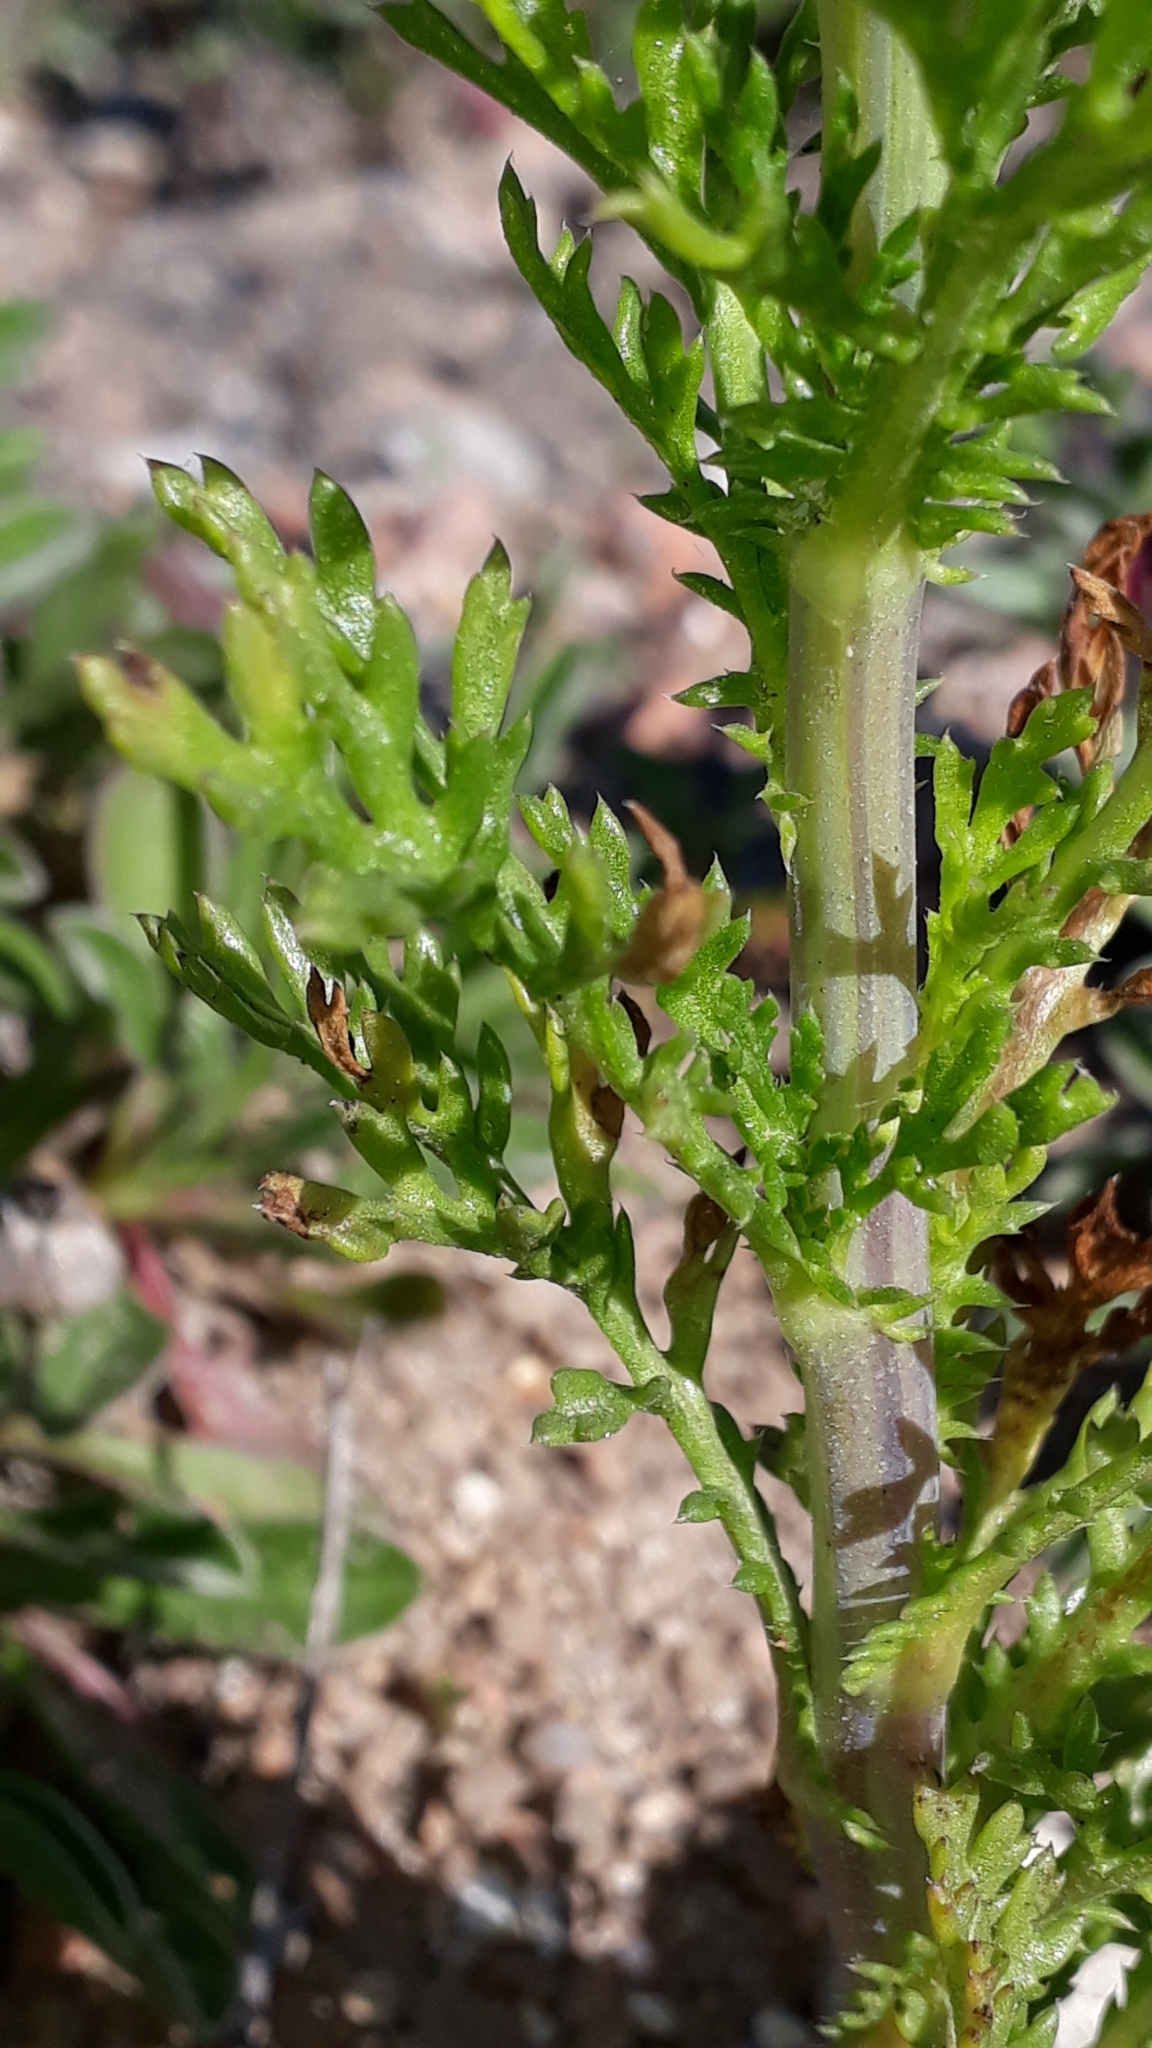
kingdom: Plantae
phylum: Tracheophyta
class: Magnoliopsida
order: Asterales
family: Asteraceae
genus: Glebionis
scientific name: Glebionis coronaria
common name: Crowndaisy
